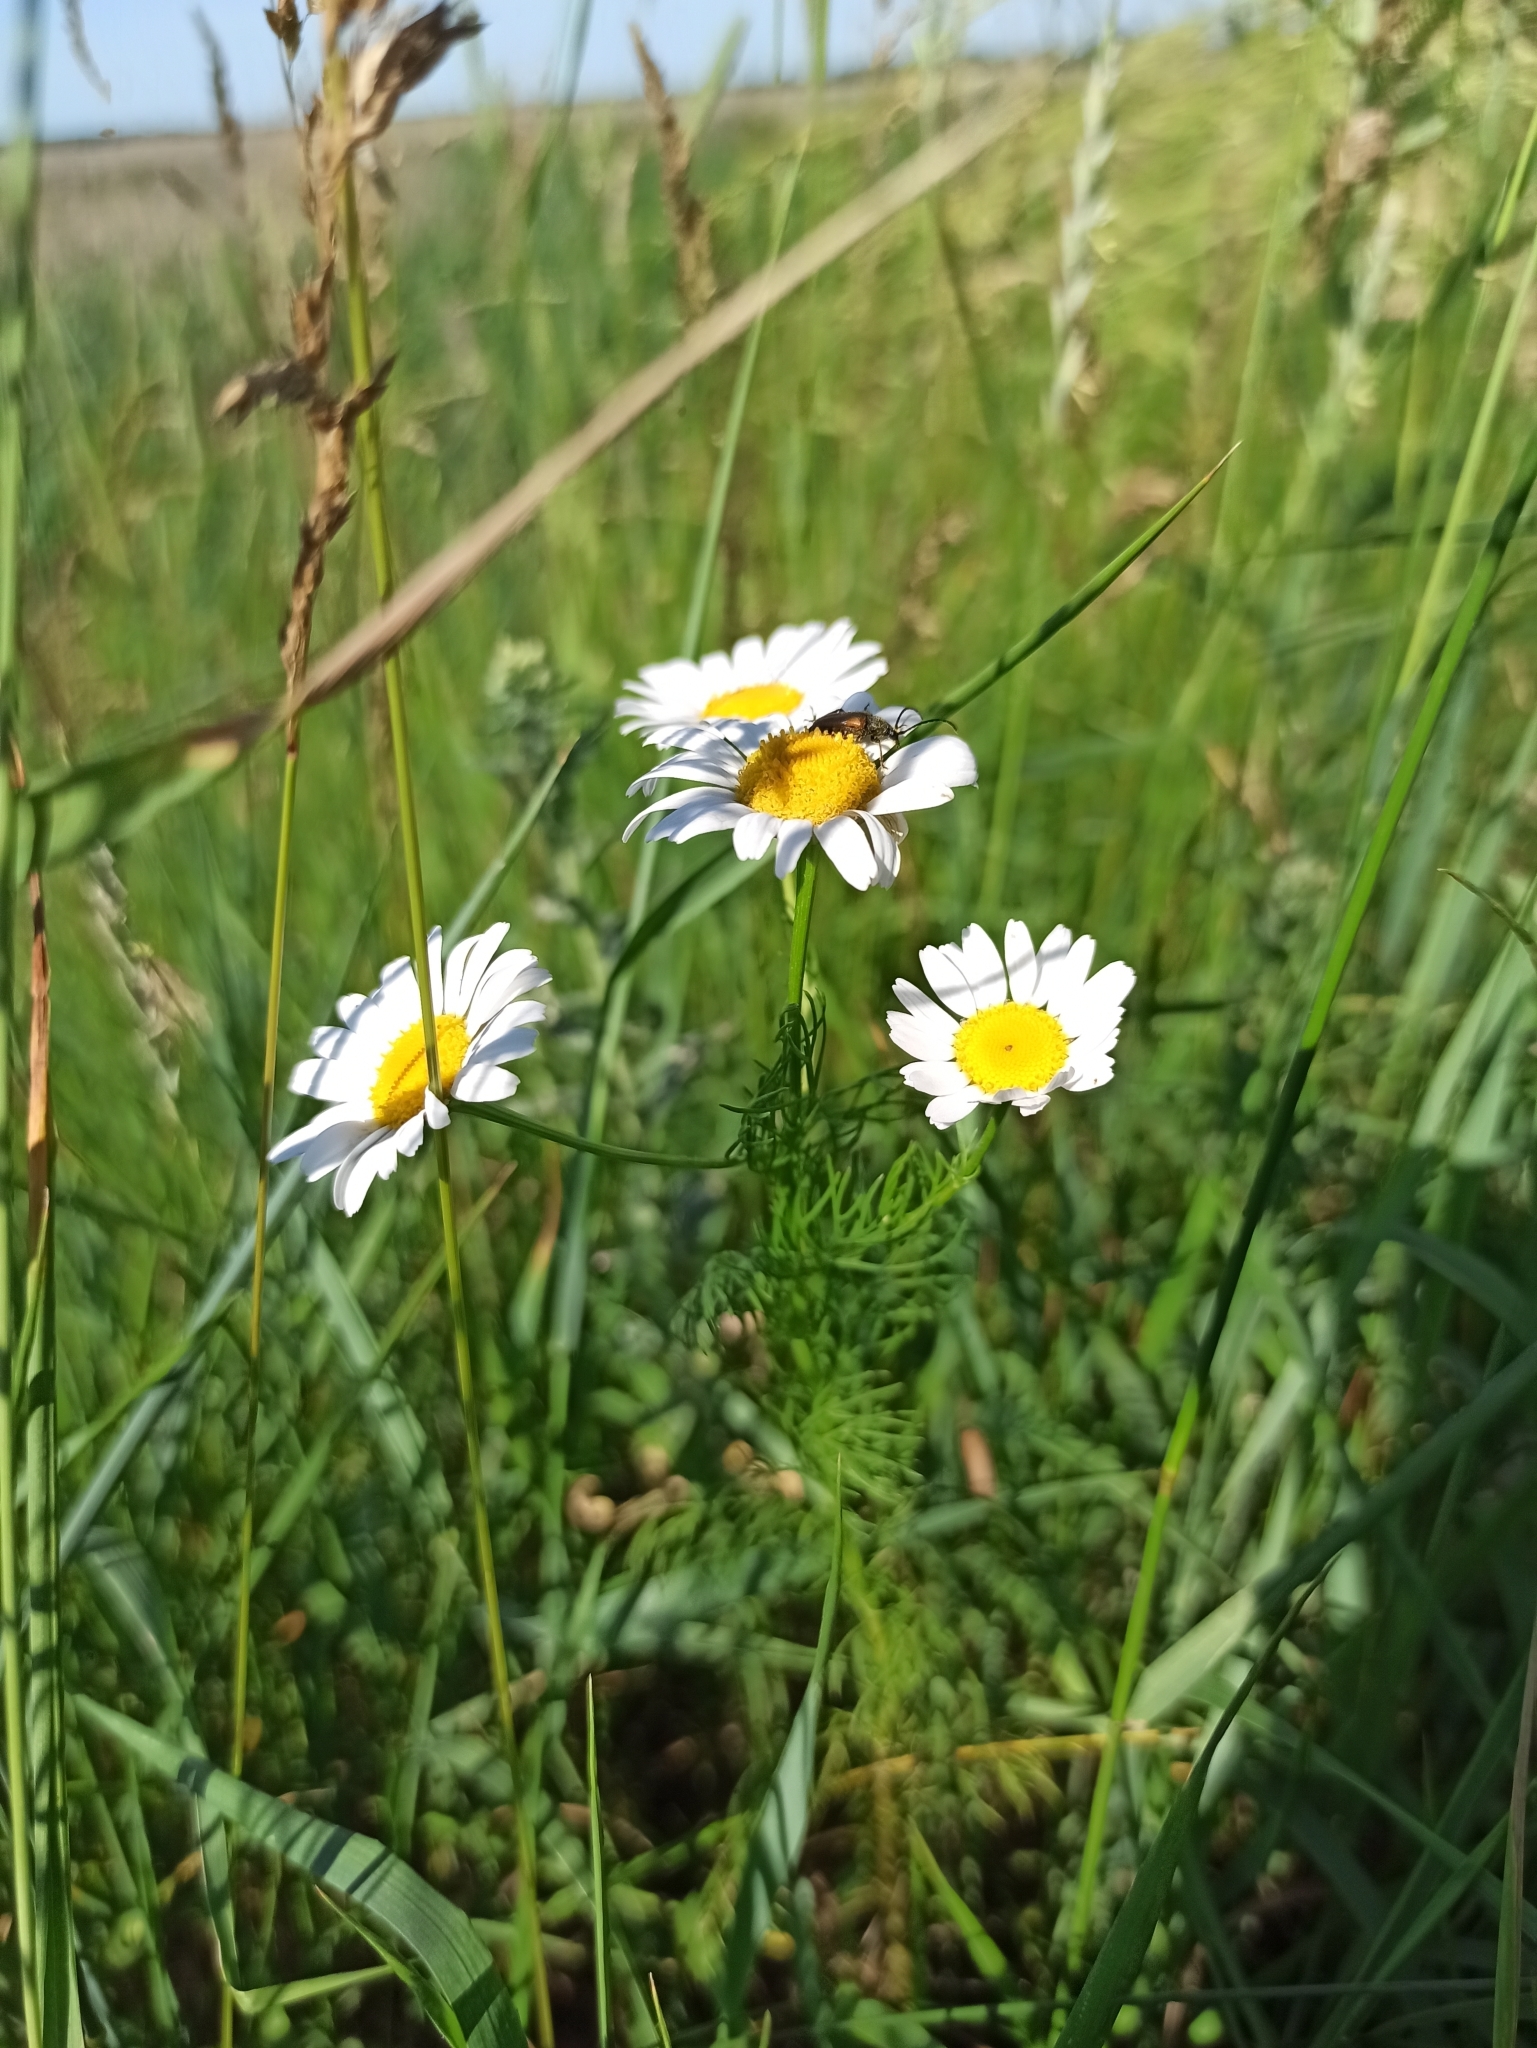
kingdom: Plantae
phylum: Tracheophyta
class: Magnoliopsida
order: Asterales
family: Asteraceae
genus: Tripleurospermum
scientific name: Tripleurospermum inodorum
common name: Scentless mayweed
